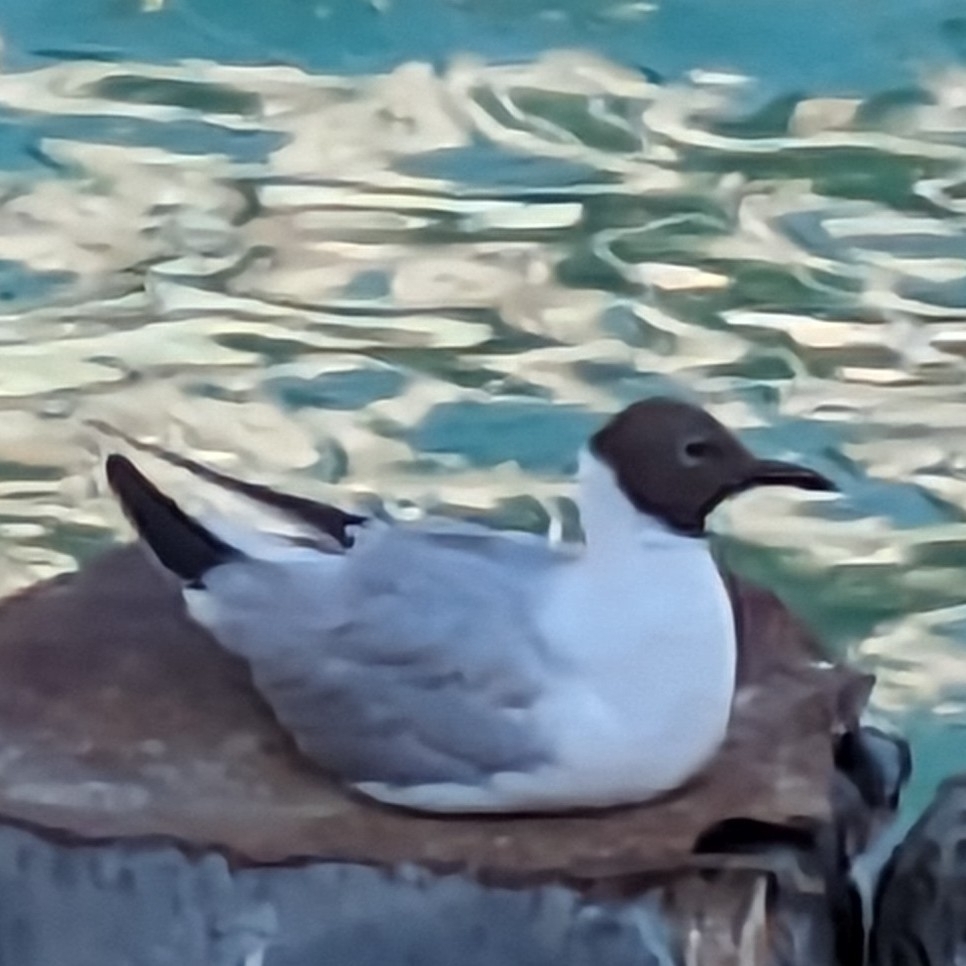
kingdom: Animalia
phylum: Chordata
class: Aves
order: Charadriiformes
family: Laridae
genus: Chroicocephalus
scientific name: Chroicocephalus ridibundus
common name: Black-headed gull
